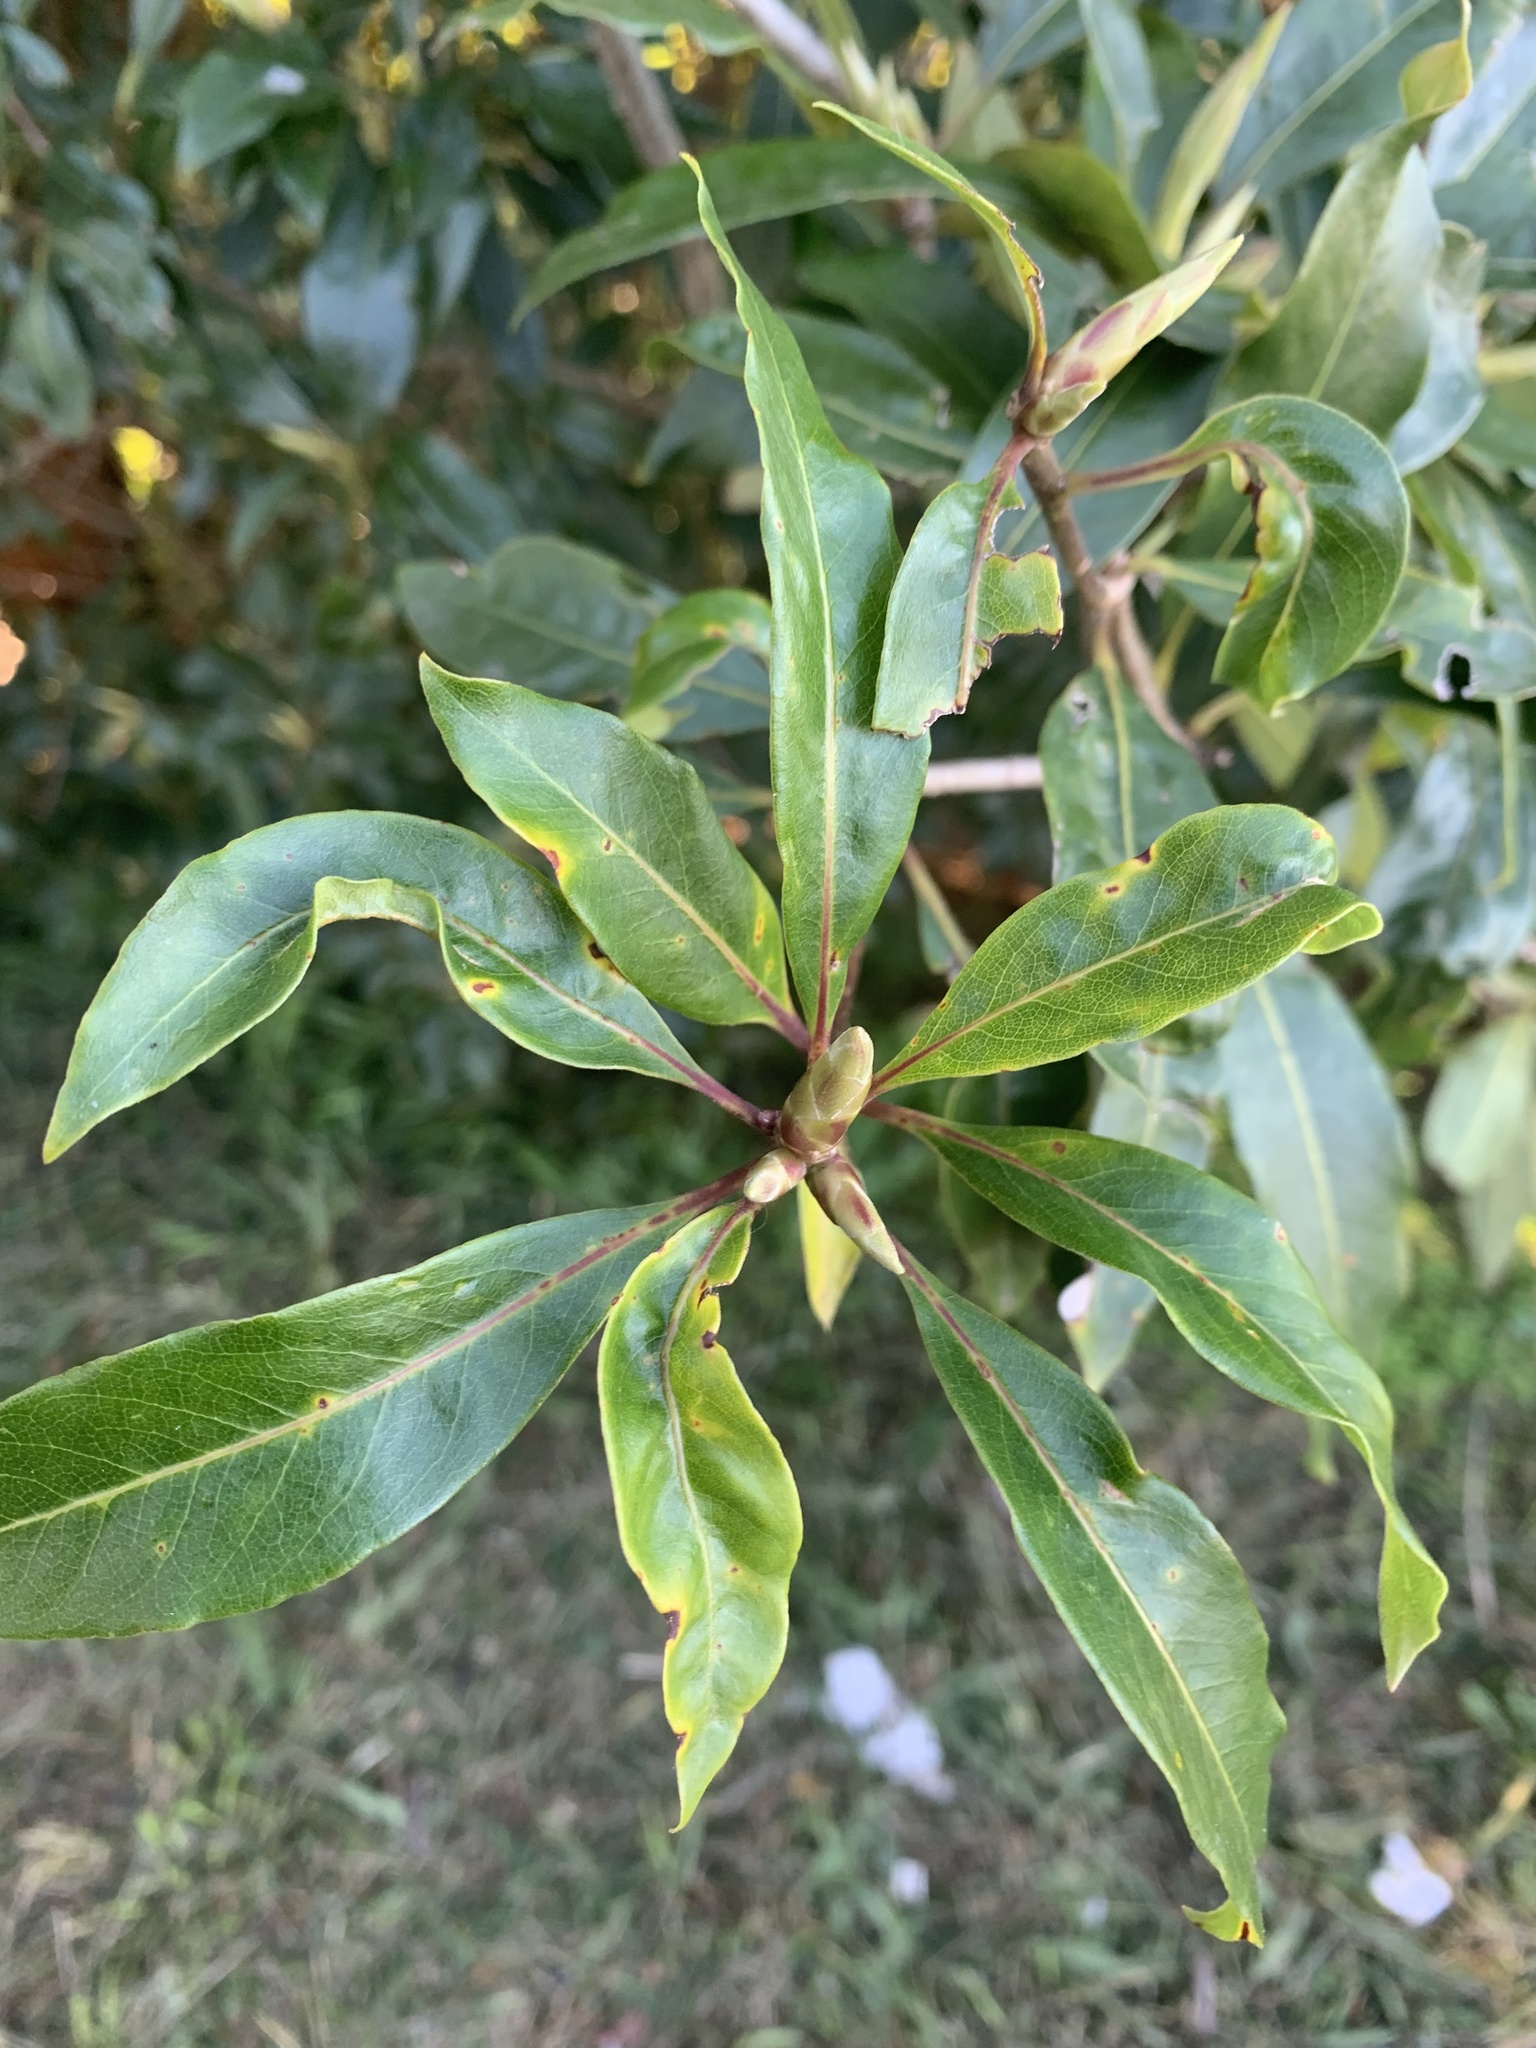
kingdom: Plantae
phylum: Tracheophyta
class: Magnoliopsida
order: Apiales
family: Pittosporaceae
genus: Pittosporum
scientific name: Pittosporum undulatum
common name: Australian cheesewood
